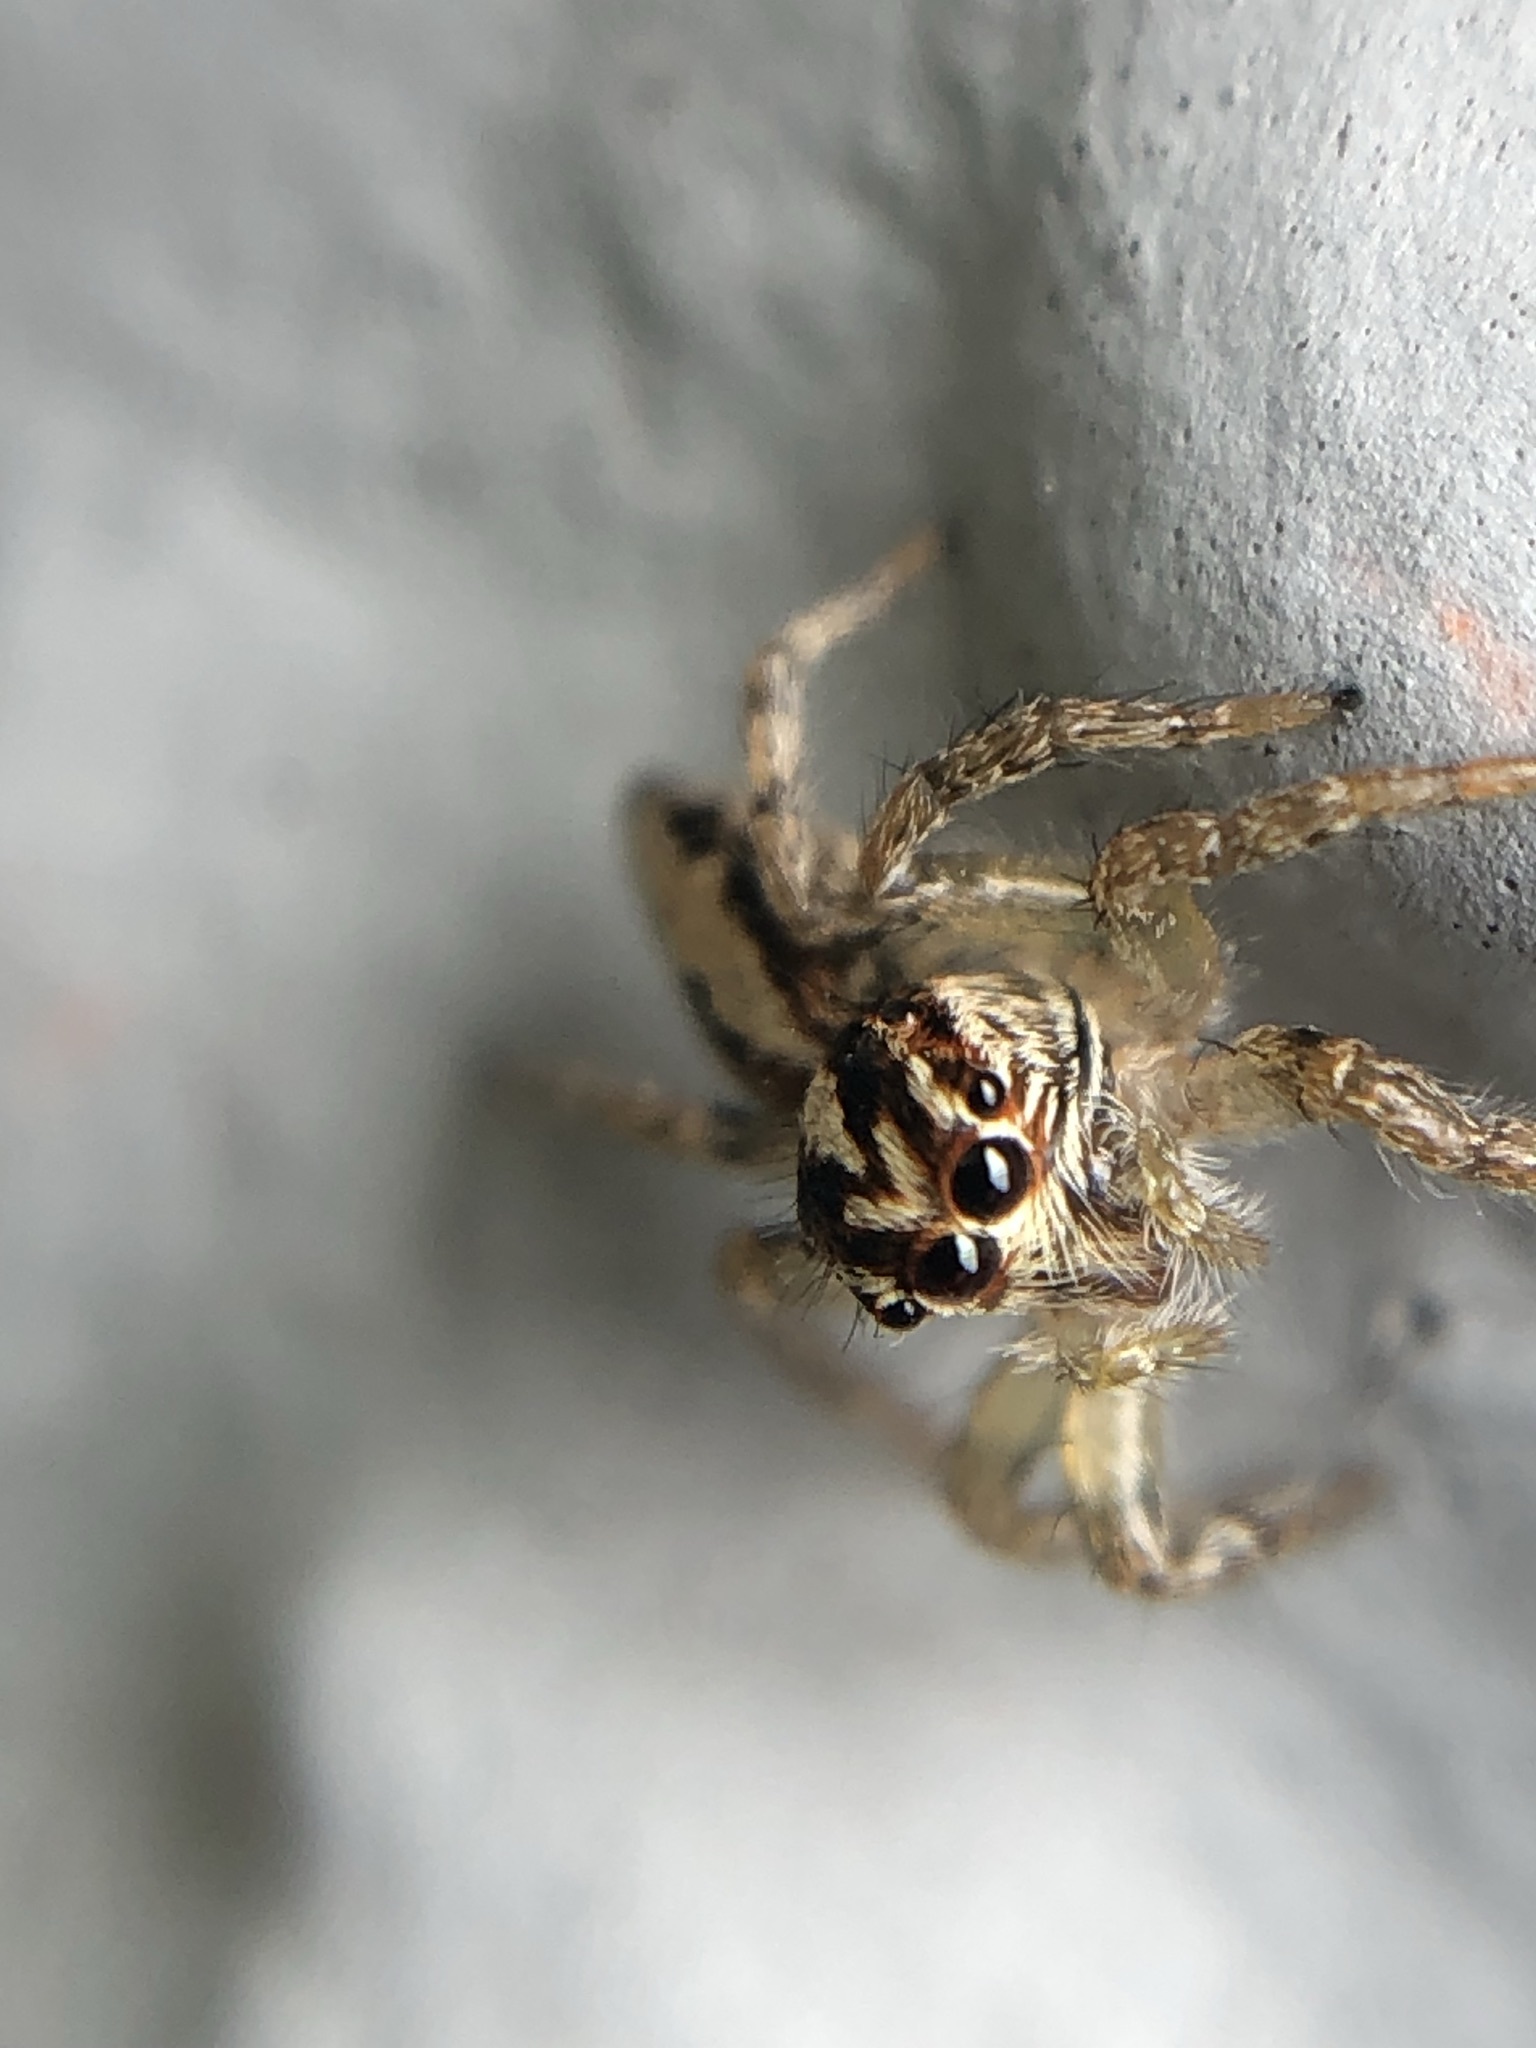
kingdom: Animalia
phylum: Arthropoda
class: Arachnida
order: Araneae
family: Salticidae
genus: Frigga
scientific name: Frigga crocuta
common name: Jumping spiders
